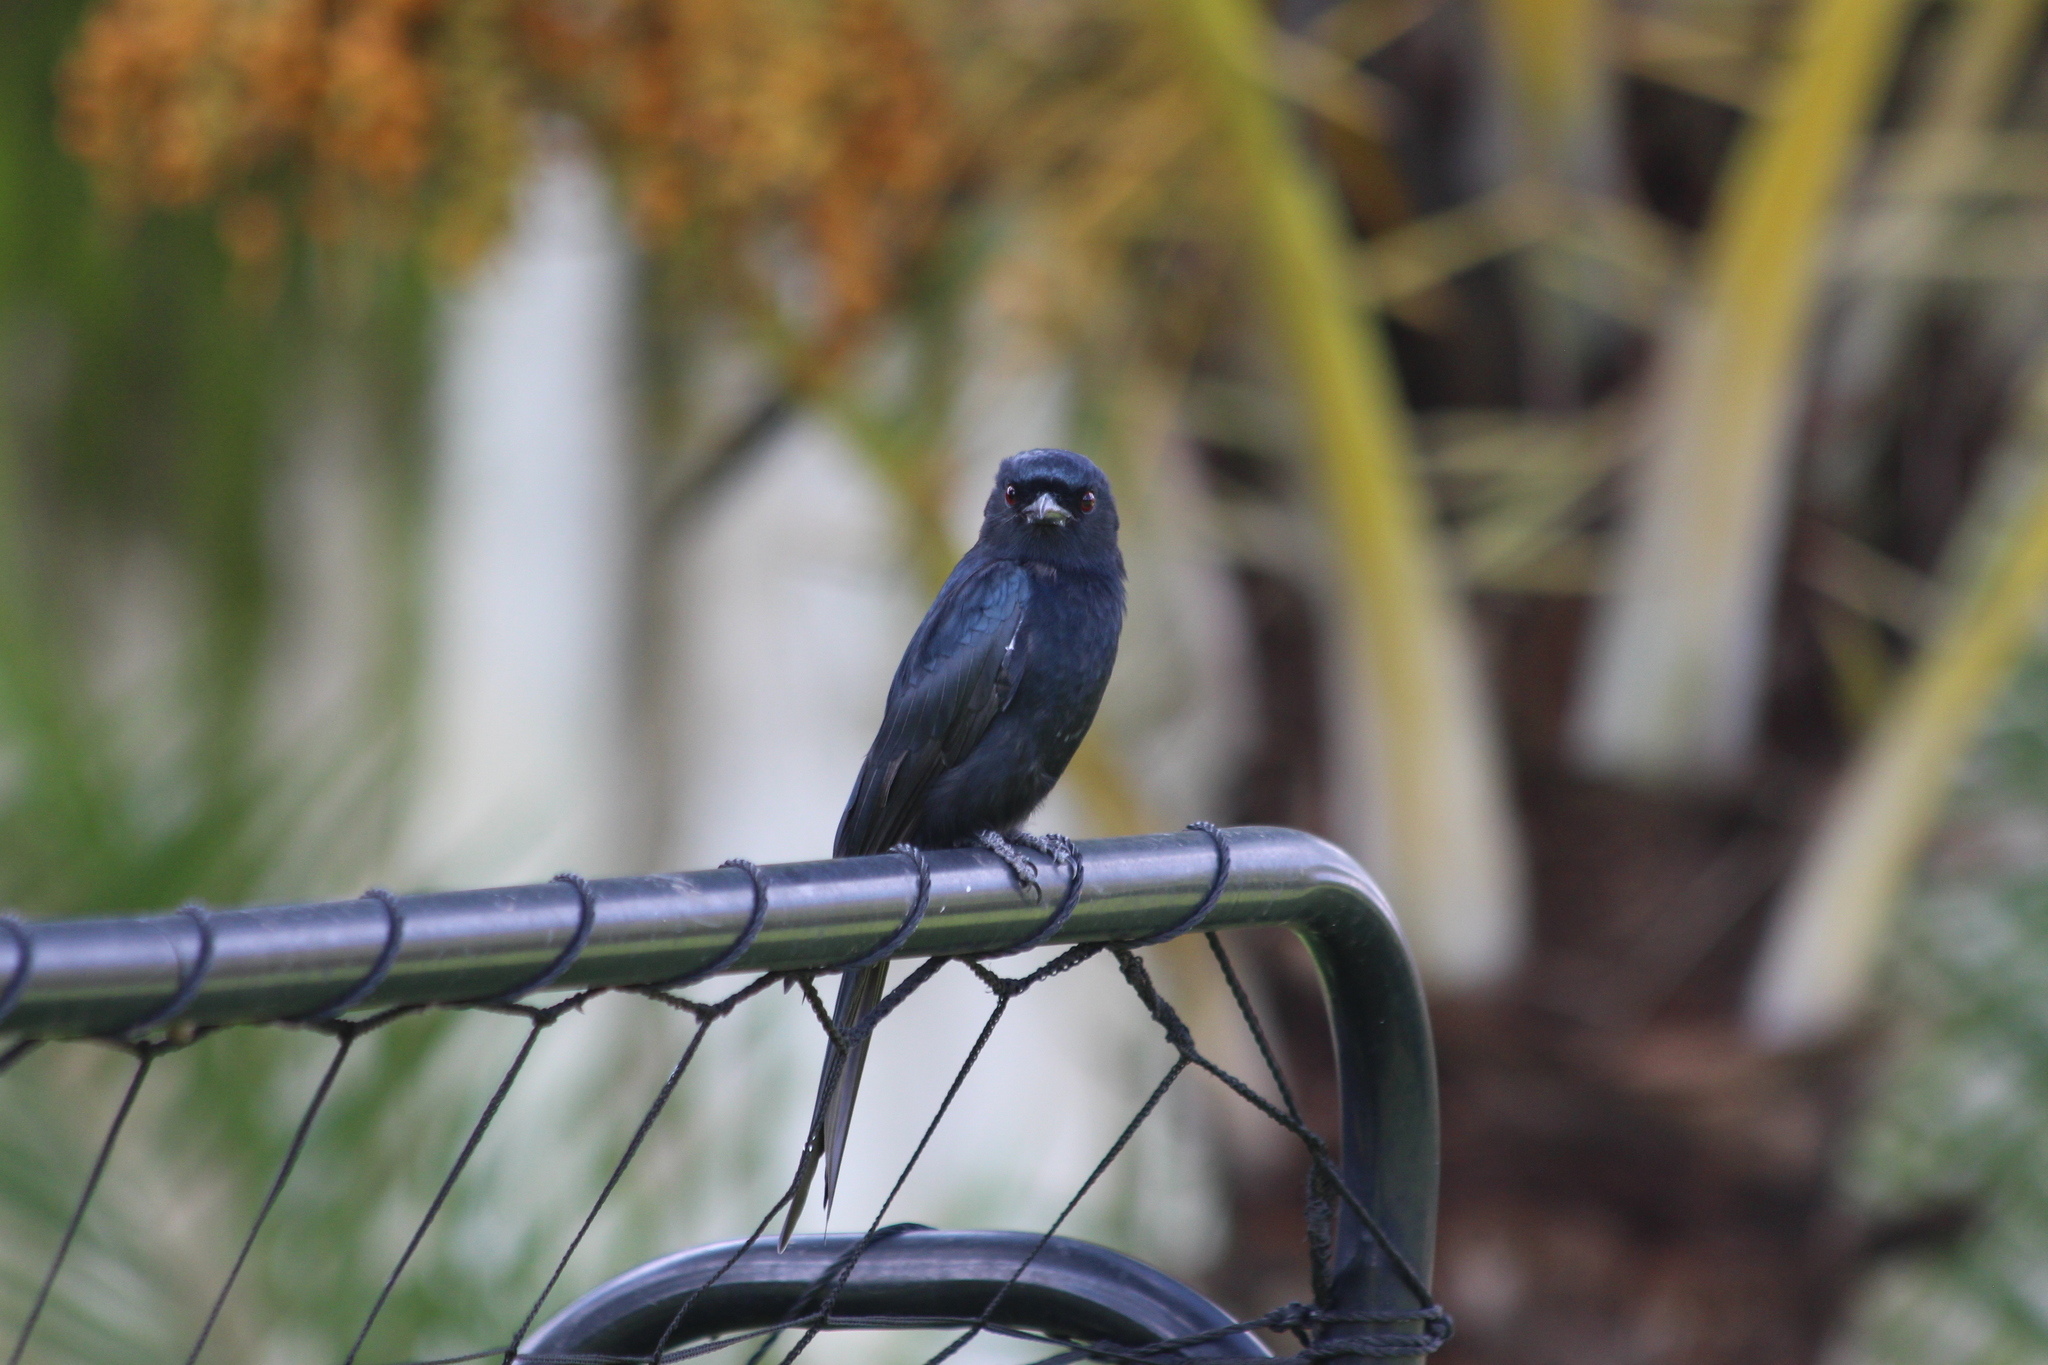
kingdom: Animalia
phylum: Chordata
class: Aves
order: Passeriformes
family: Dicruridae
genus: Dicrurus
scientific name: Dicrurus adsimilis
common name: Fork-tailed drongo
